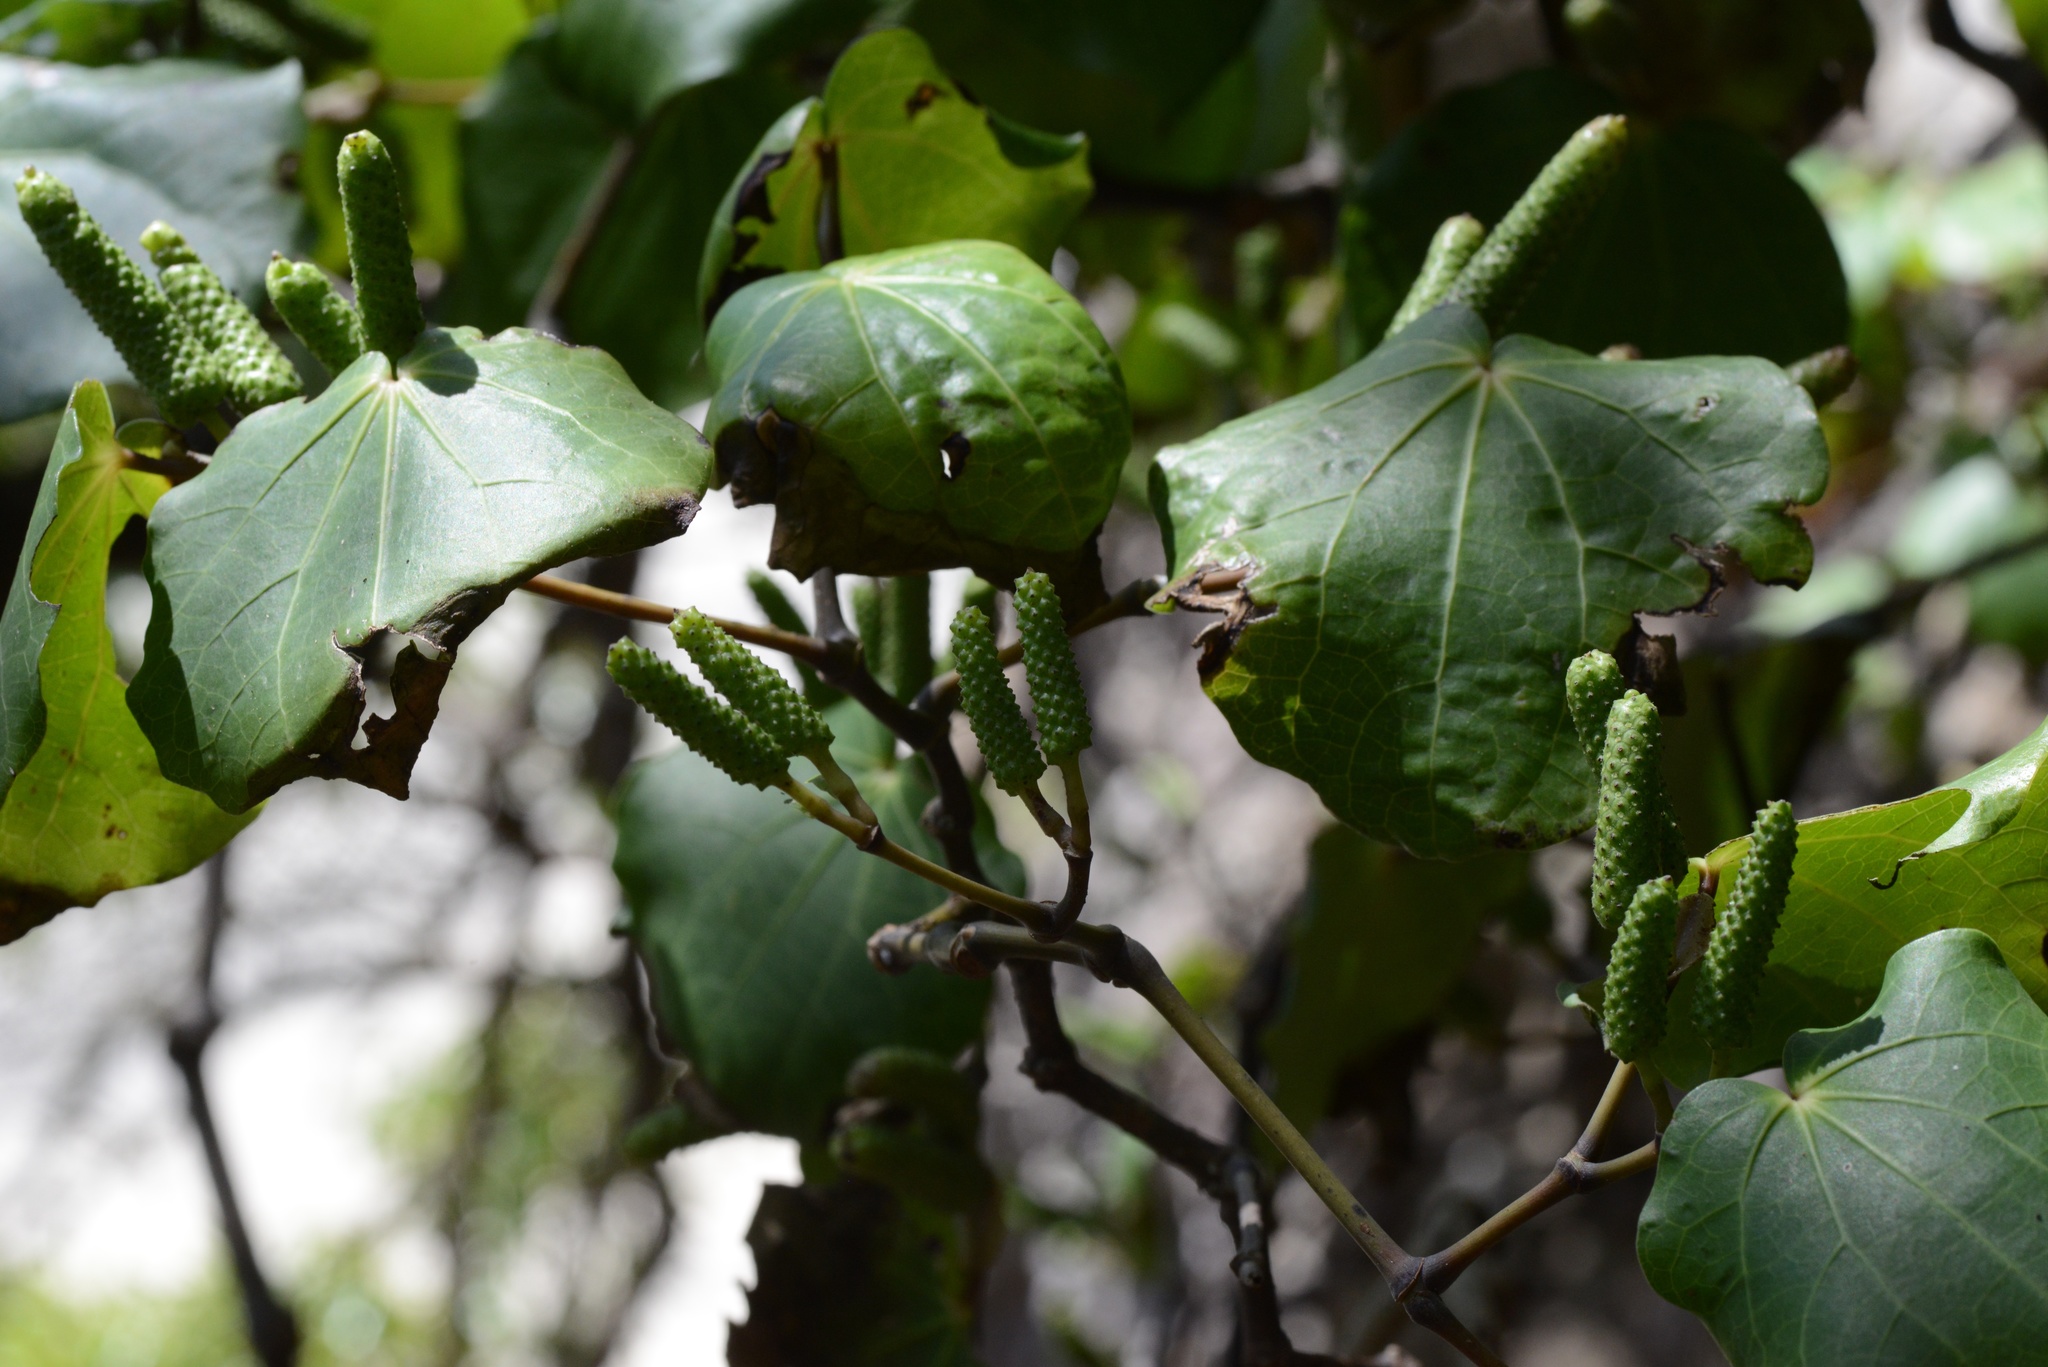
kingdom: Plantae
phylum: Tracheophyta
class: Magnoliopsida
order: Piperales
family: Piperaceae
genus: Macropiper
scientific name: Macropiper excelsum
